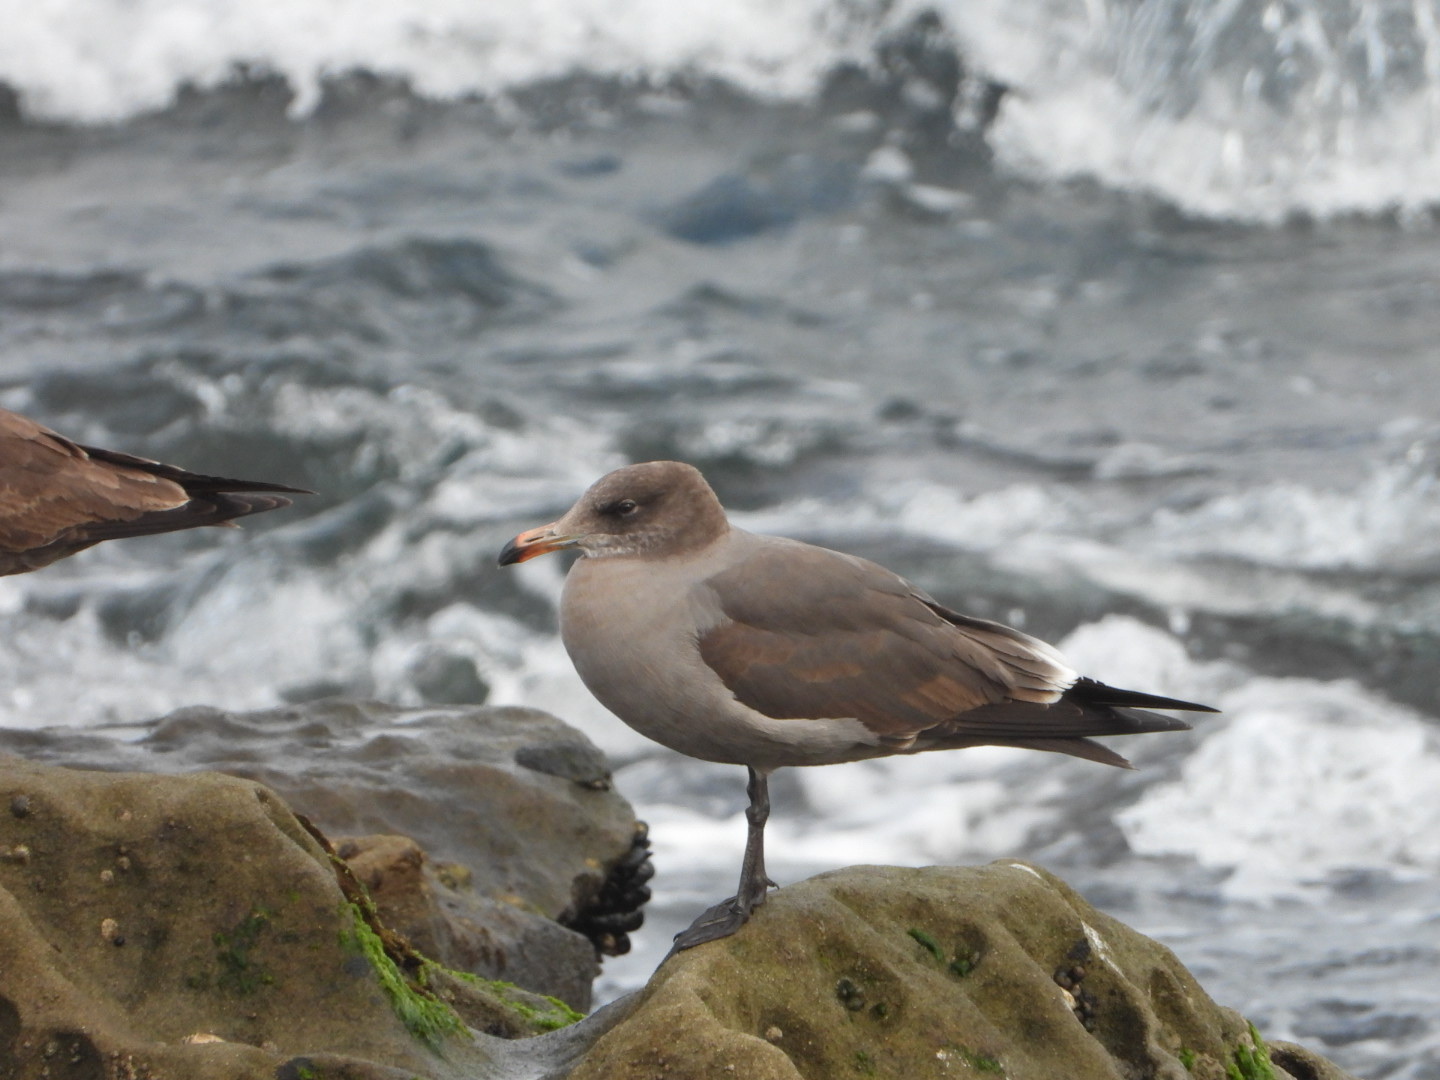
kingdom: Animalia
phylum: Chordata
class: Aves
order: Charadriiformes
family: Laridae
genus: Larus
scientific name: Larus heermanni
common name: Heermann's gull
